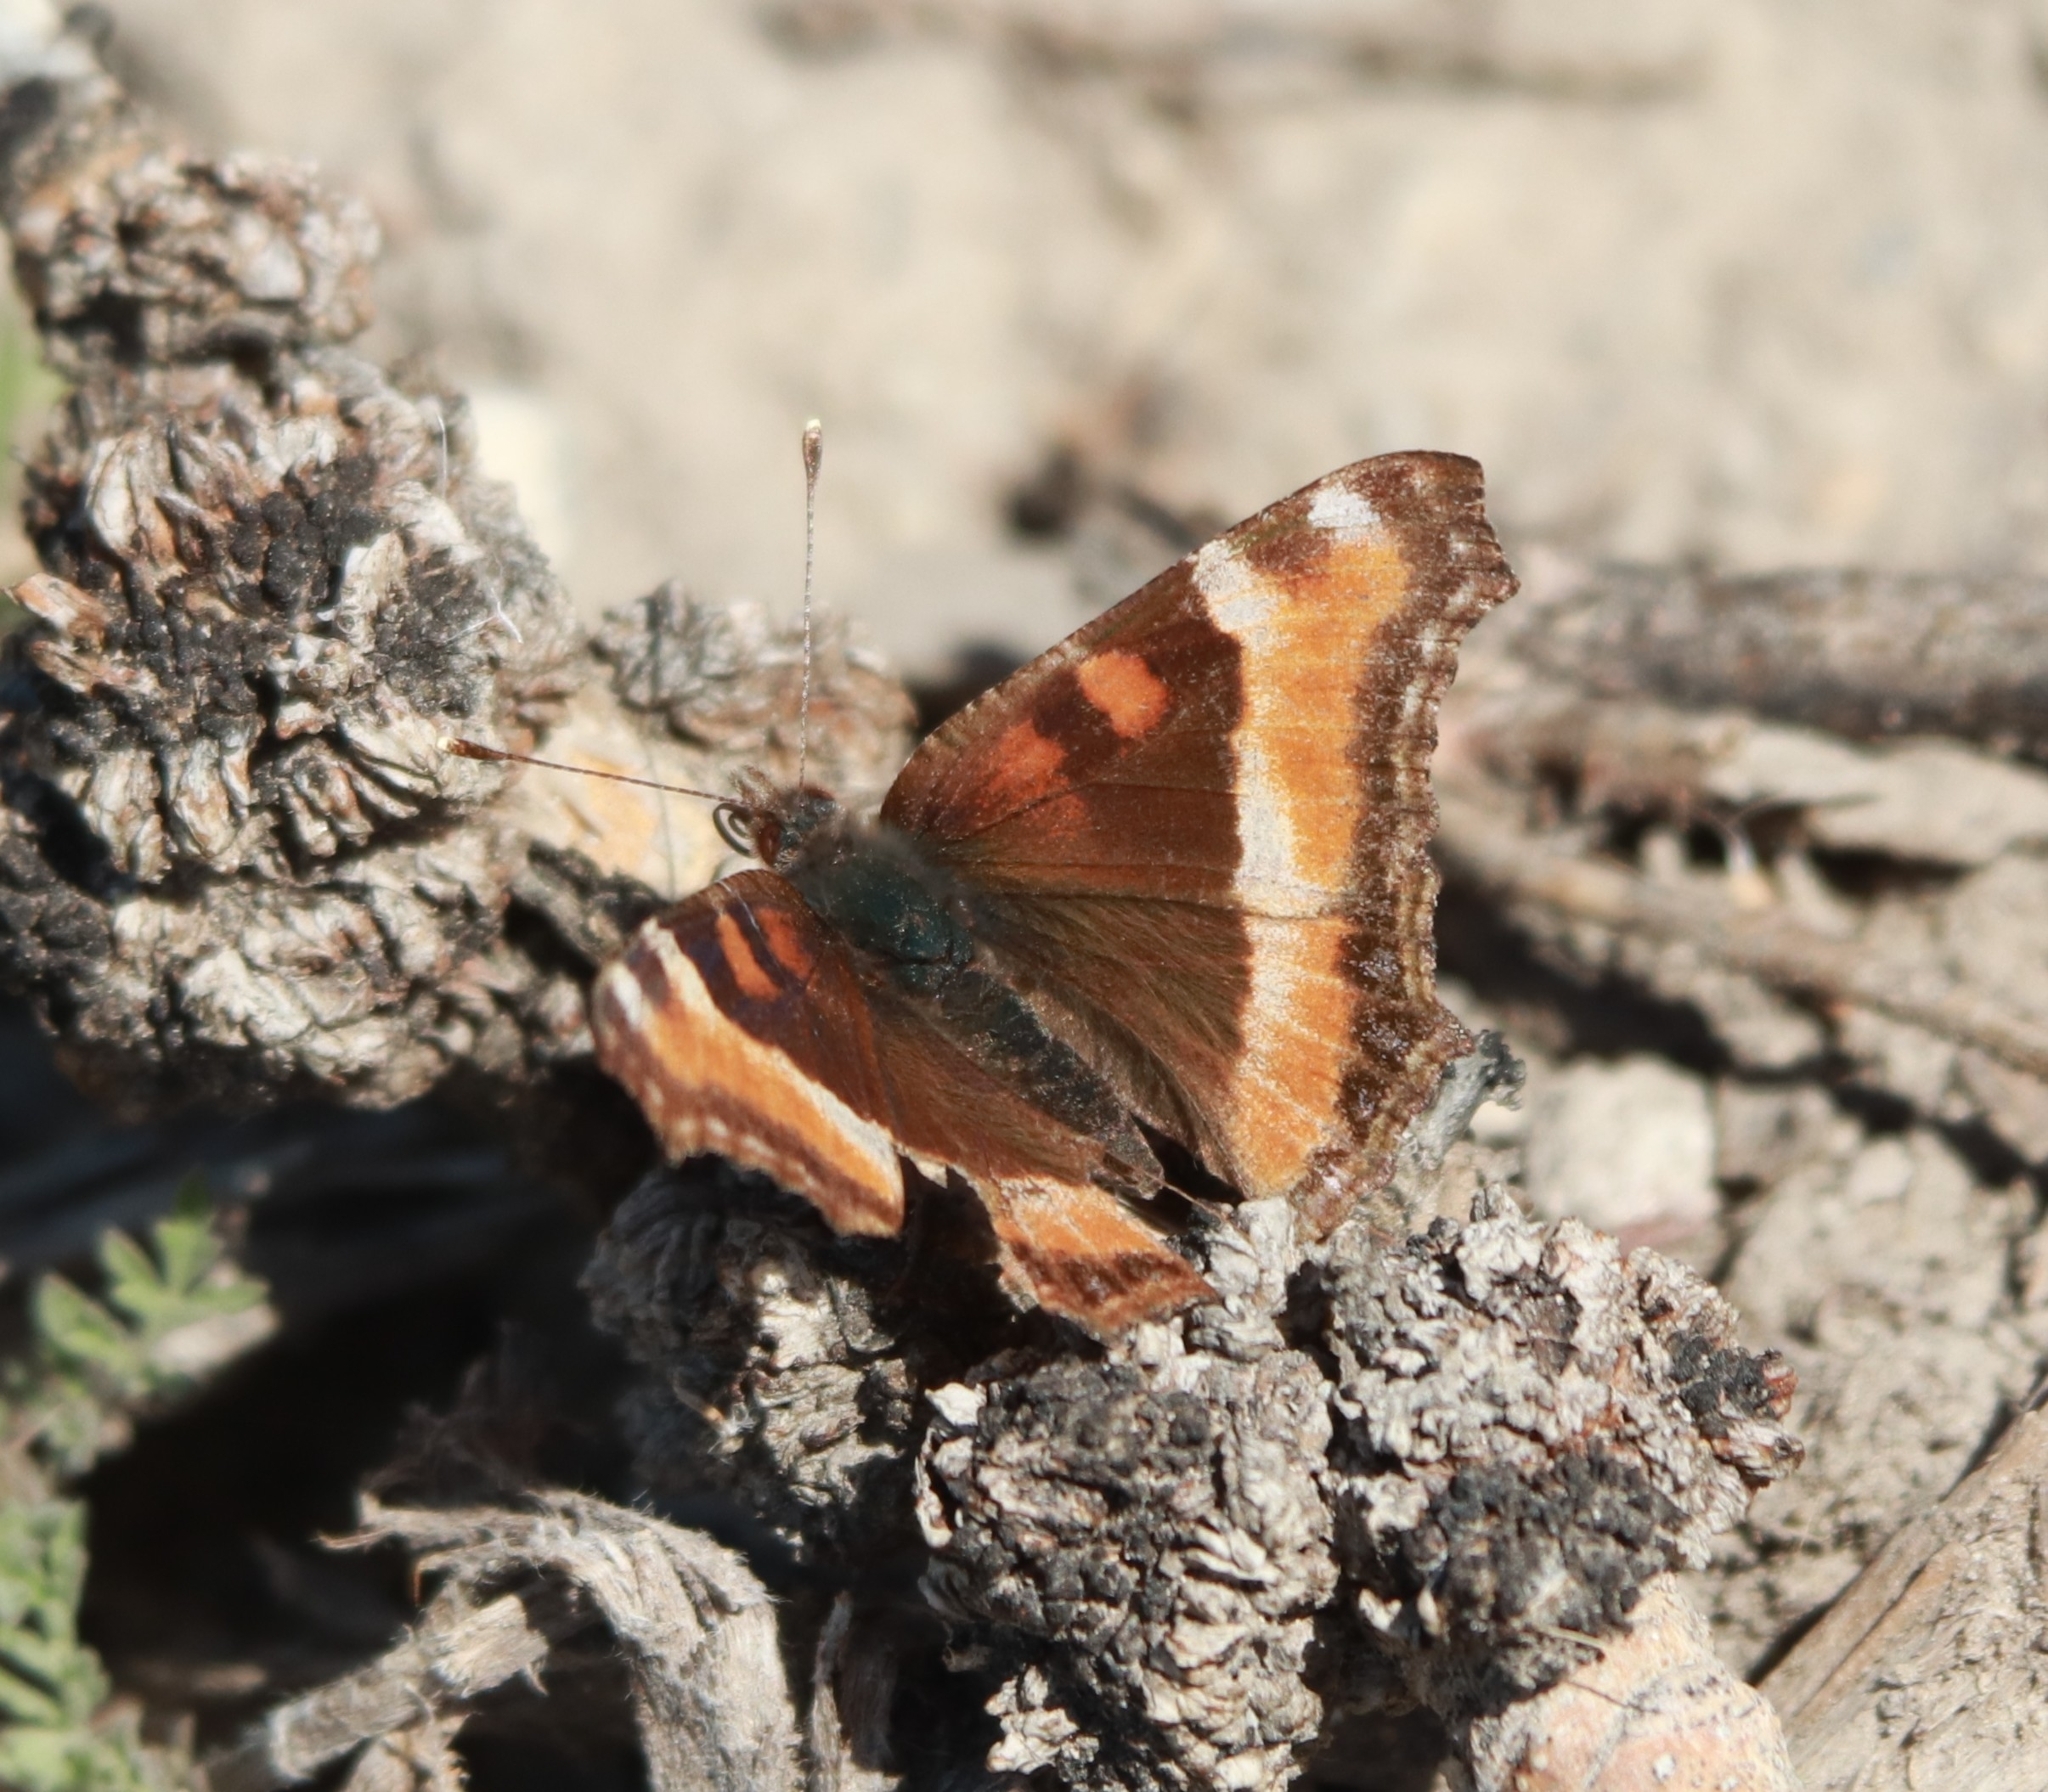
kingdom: Animalia
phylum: Arthropoda
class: Insecta
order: Lepidoptera
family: Nymphalidae
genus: Aglais
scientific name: Aglais milberti
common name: Milbert's tortoiseshell
